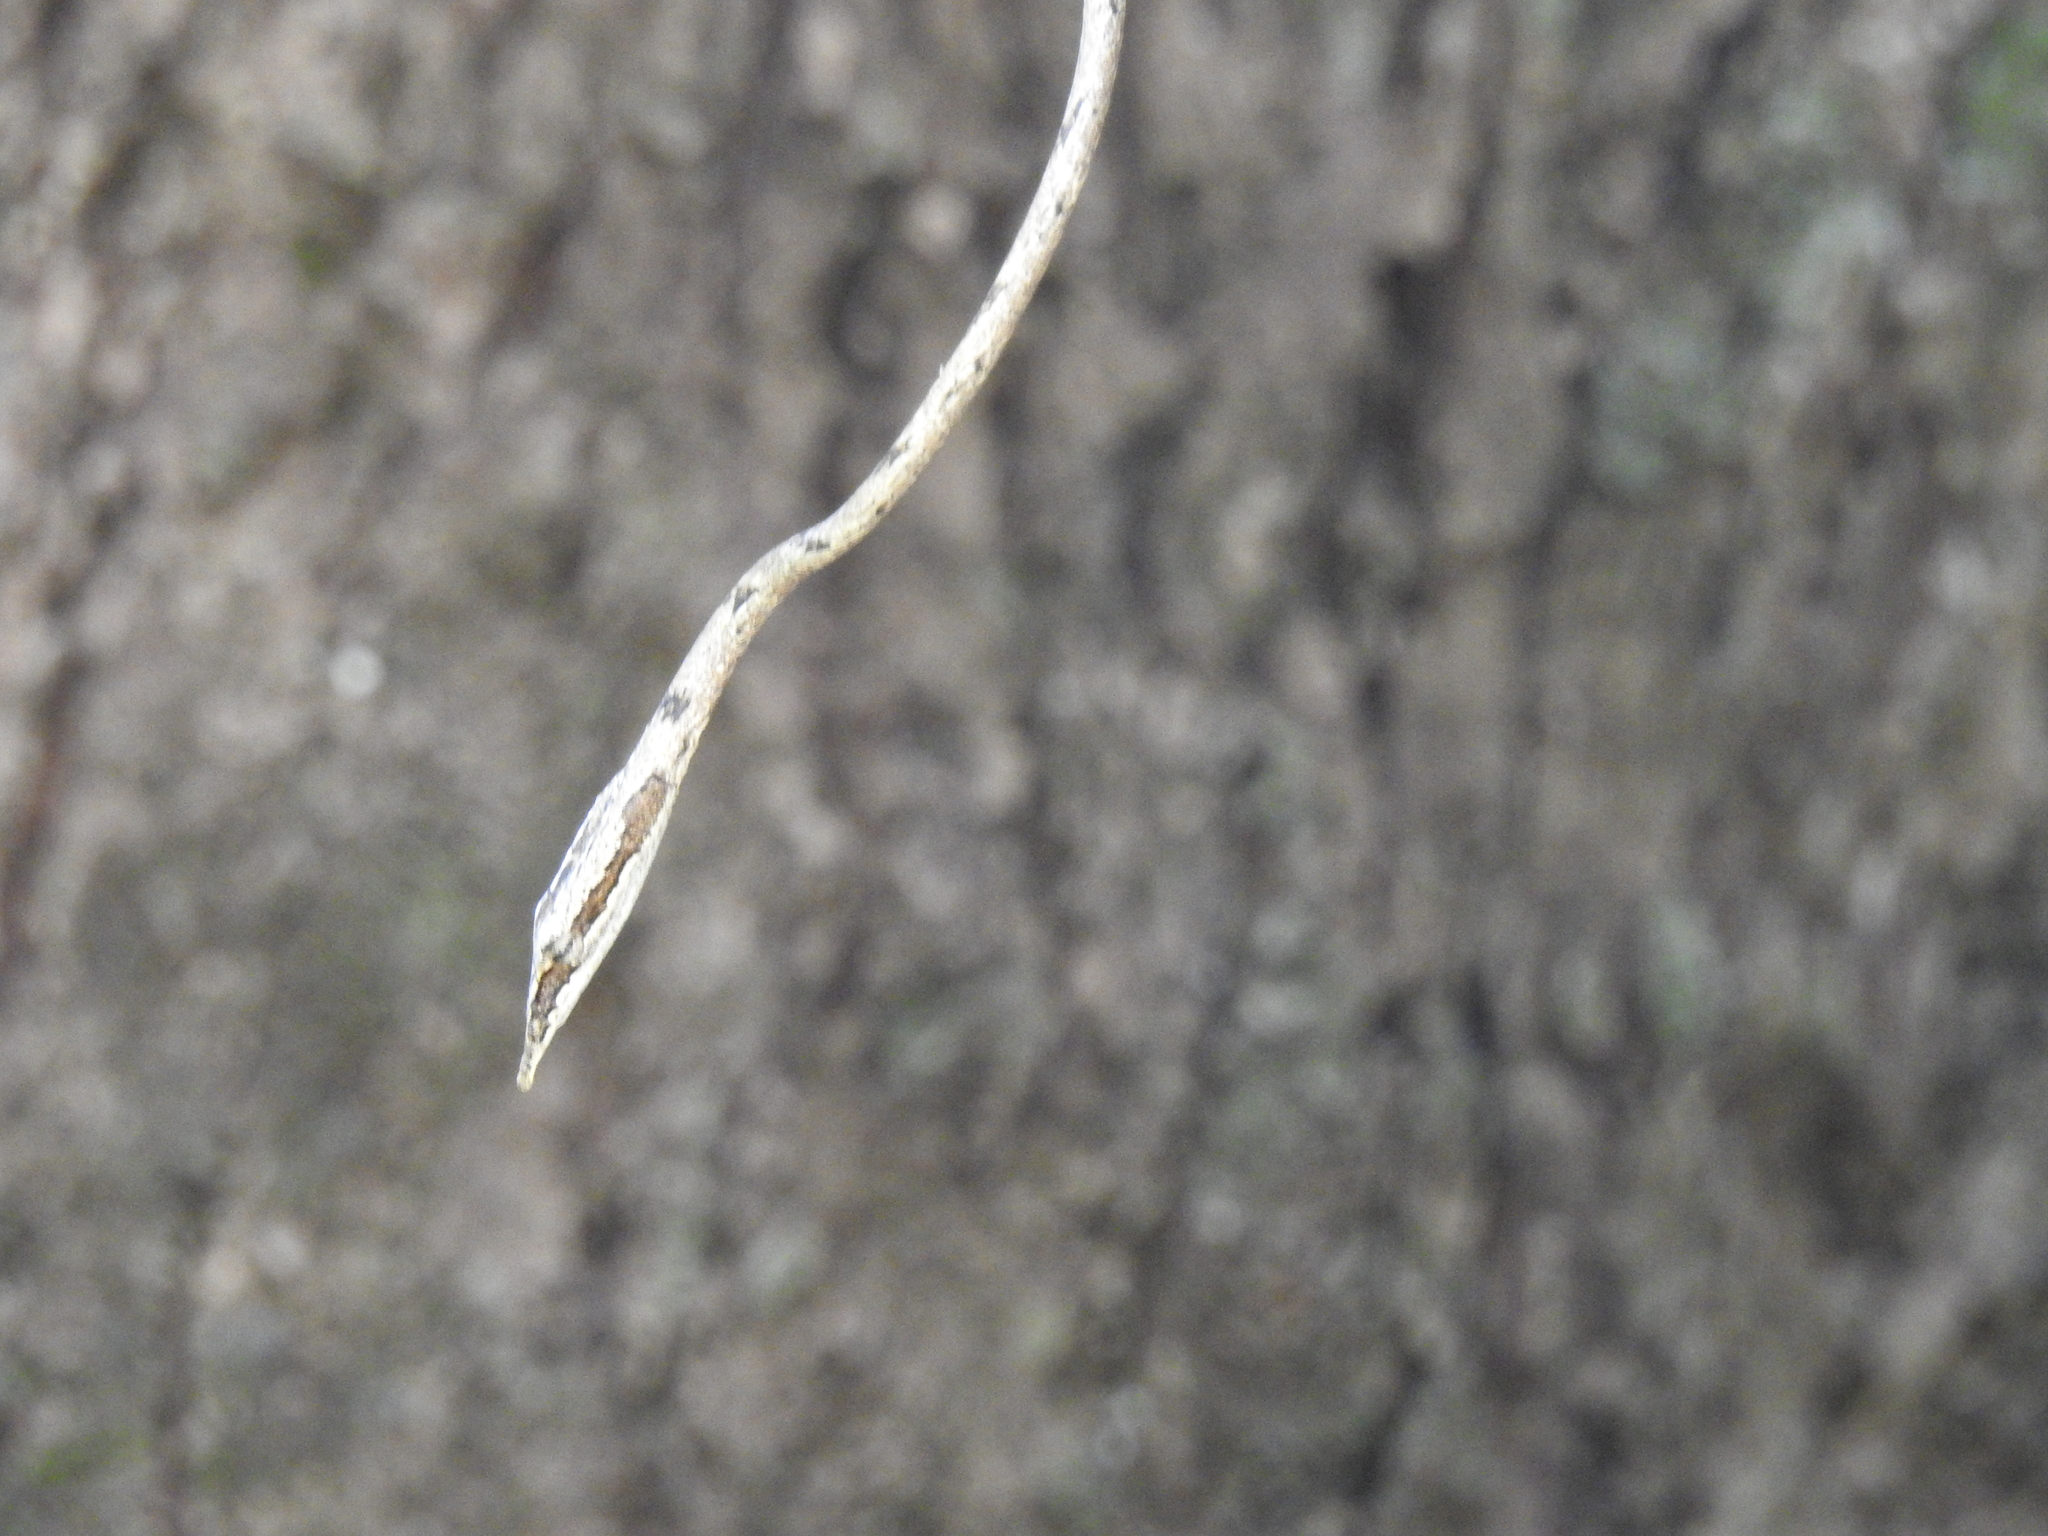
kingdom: Animalia
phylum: Chordata
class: Squamata
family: Colubridae
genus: Ahaetulla
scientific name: Ahaetulla sahyadrensis
